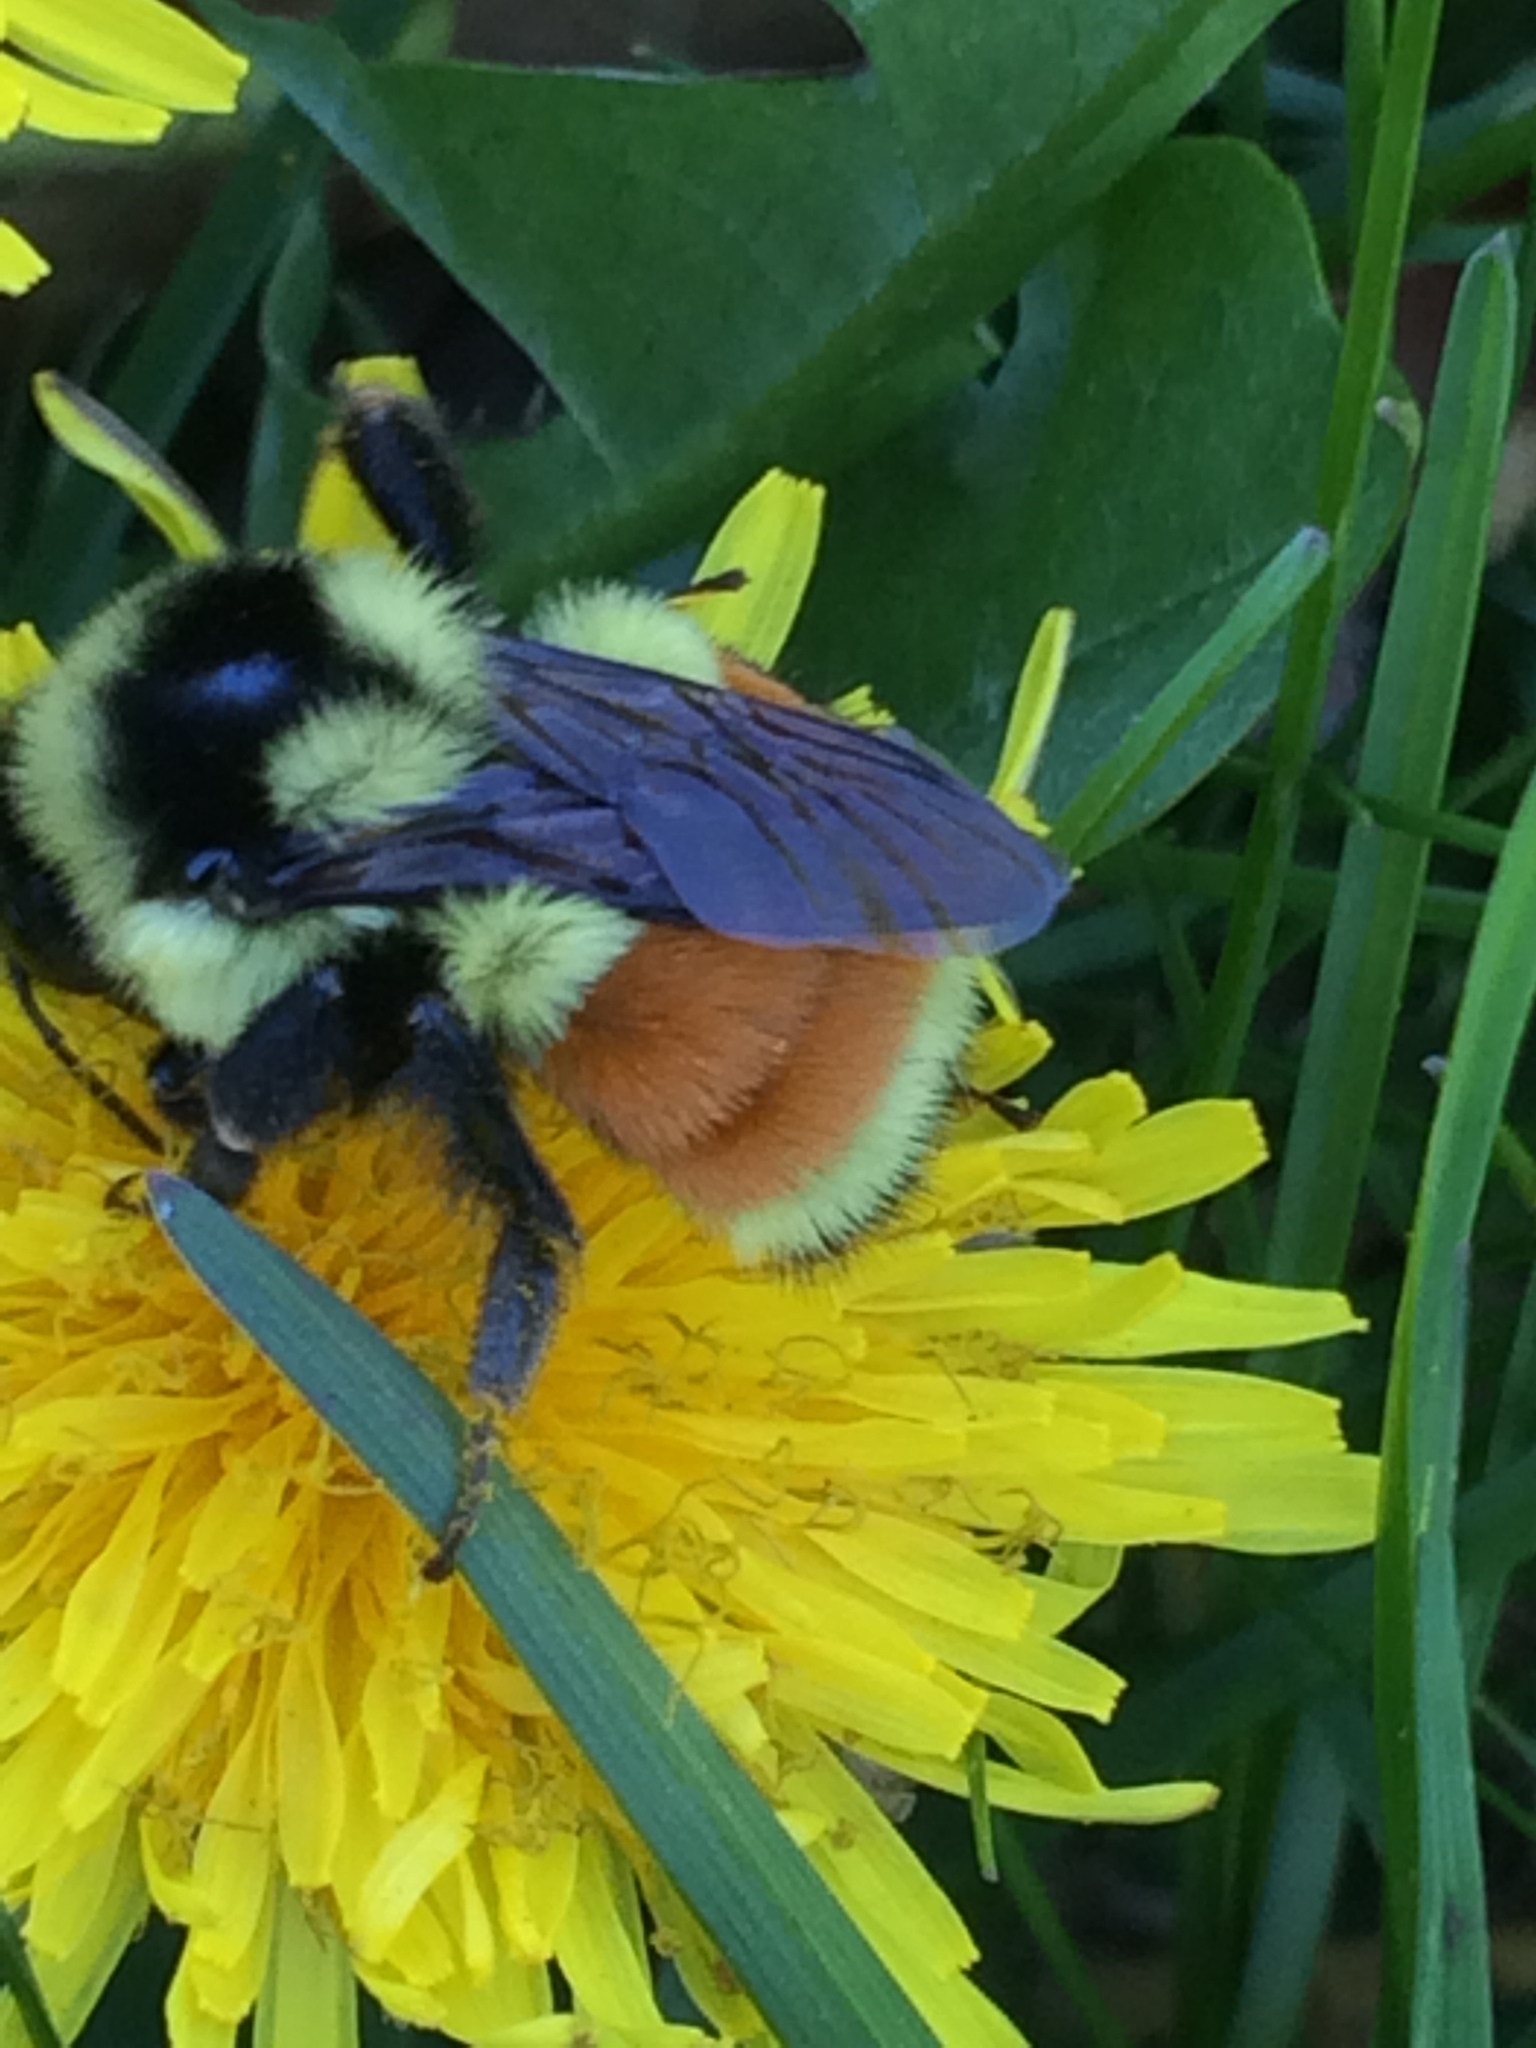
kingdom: Animalia
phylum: Arthropoda
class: Insecta
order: Hymenoptera
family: Apidae
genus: Bombus
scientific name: Bombus ternarius
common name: Tri-colored bumble bee
